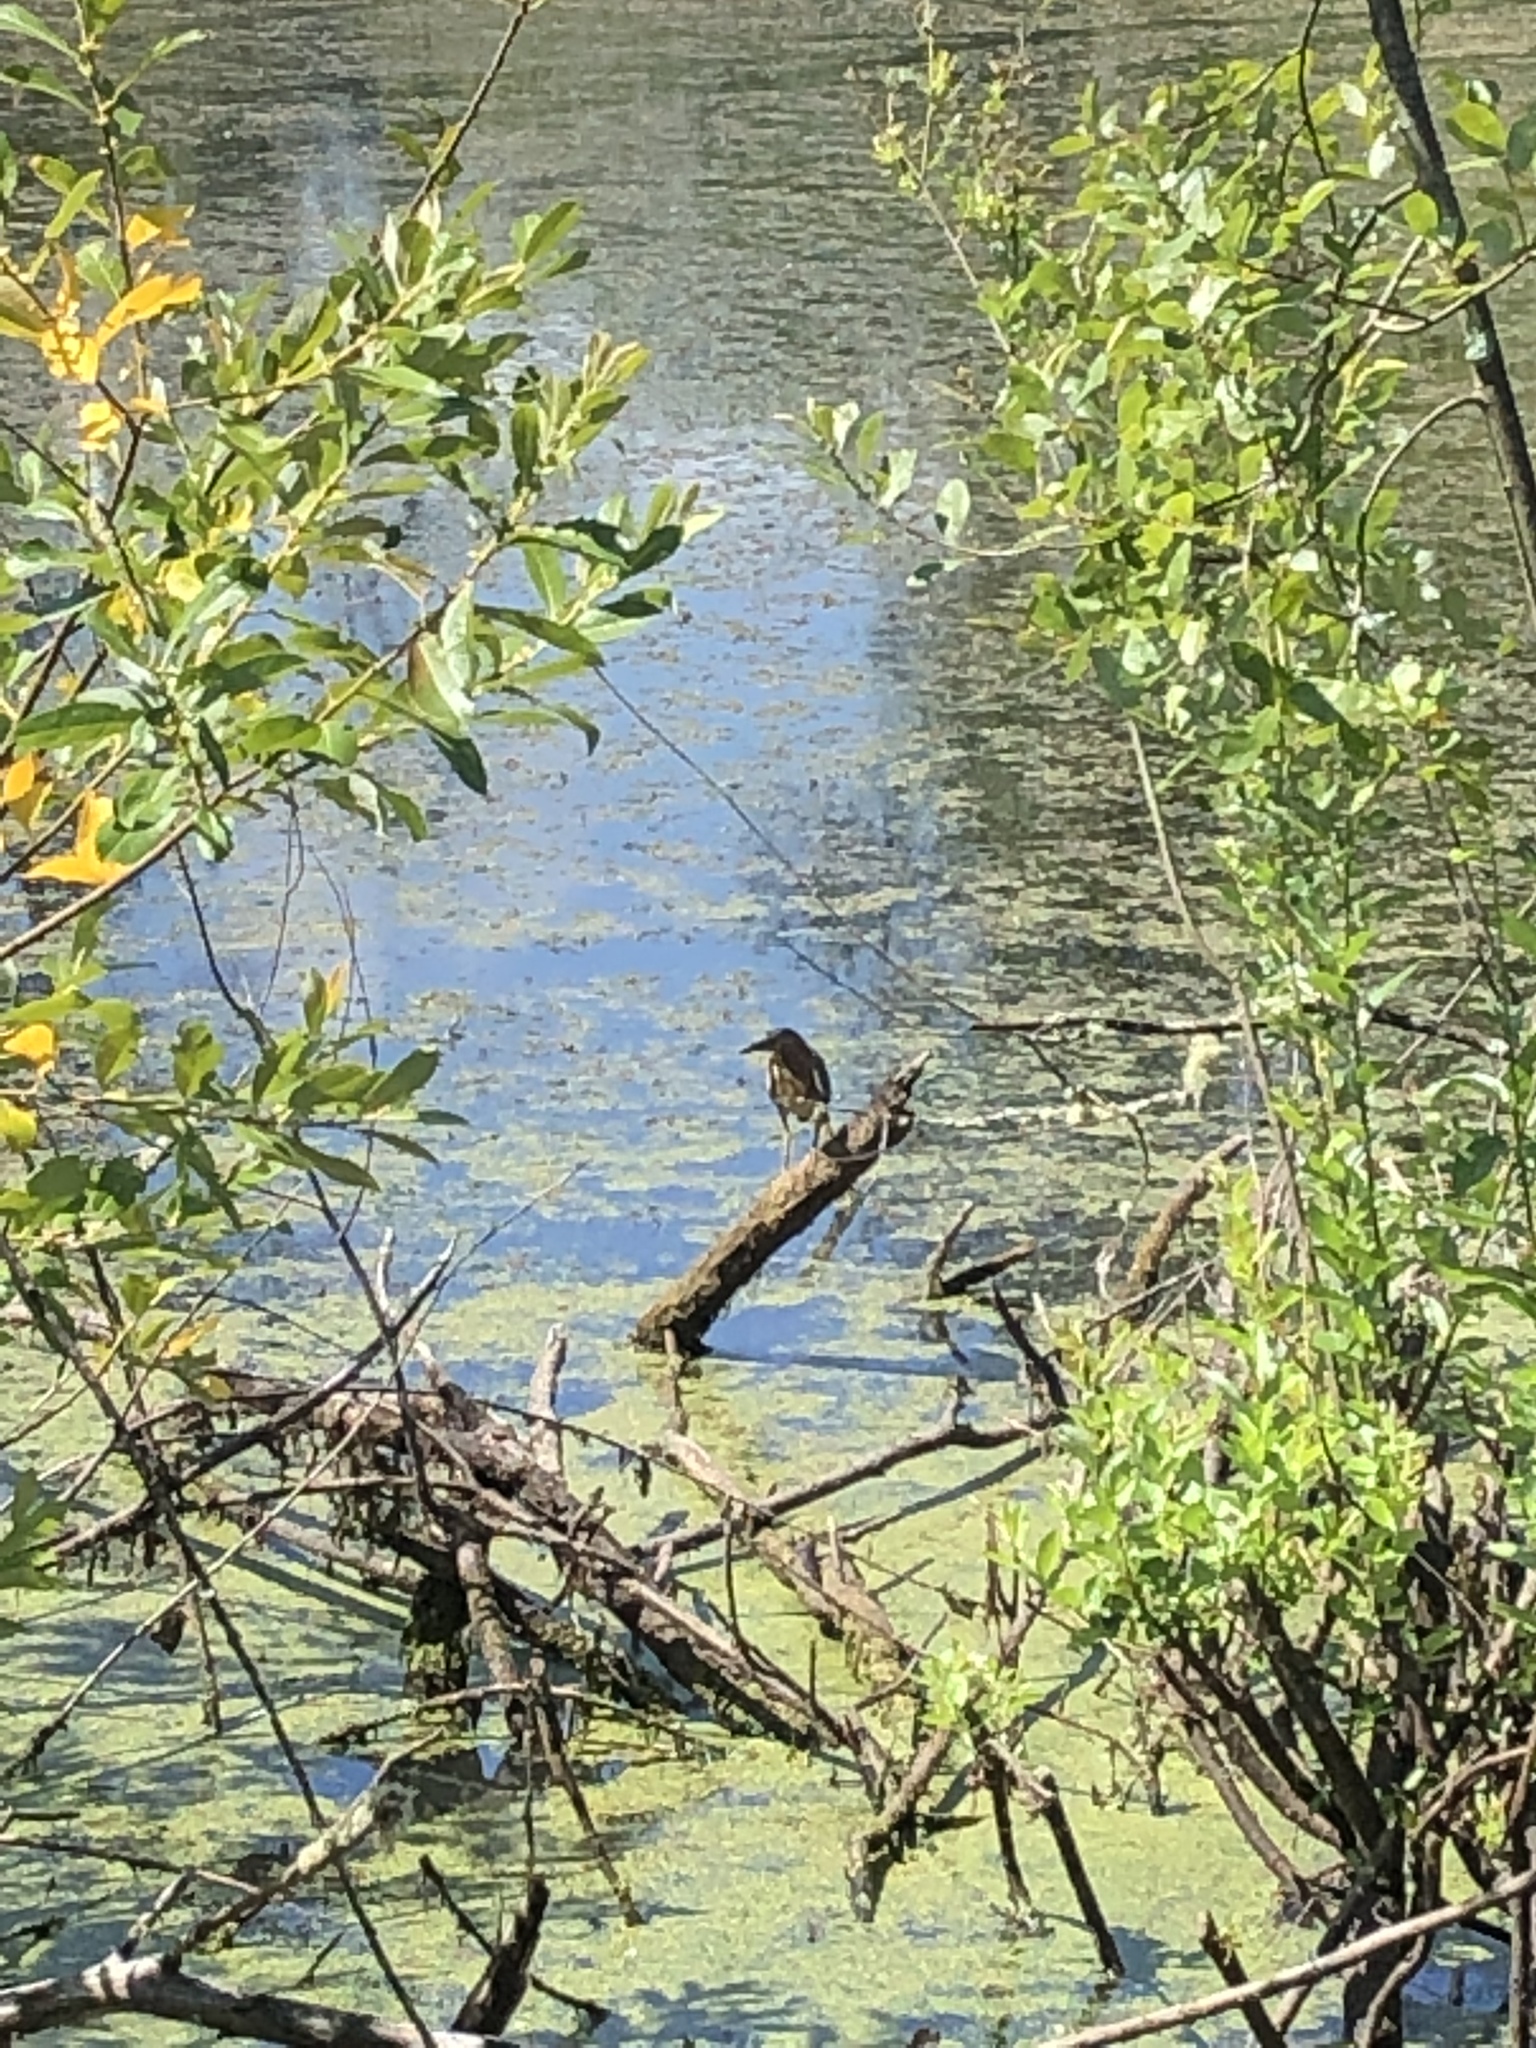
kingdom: Animalia
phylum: Chordata
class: Aves
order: Pelecaniformes
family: Ardeidae
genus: Butorides
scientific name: Butorides virescens
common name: Green heron
